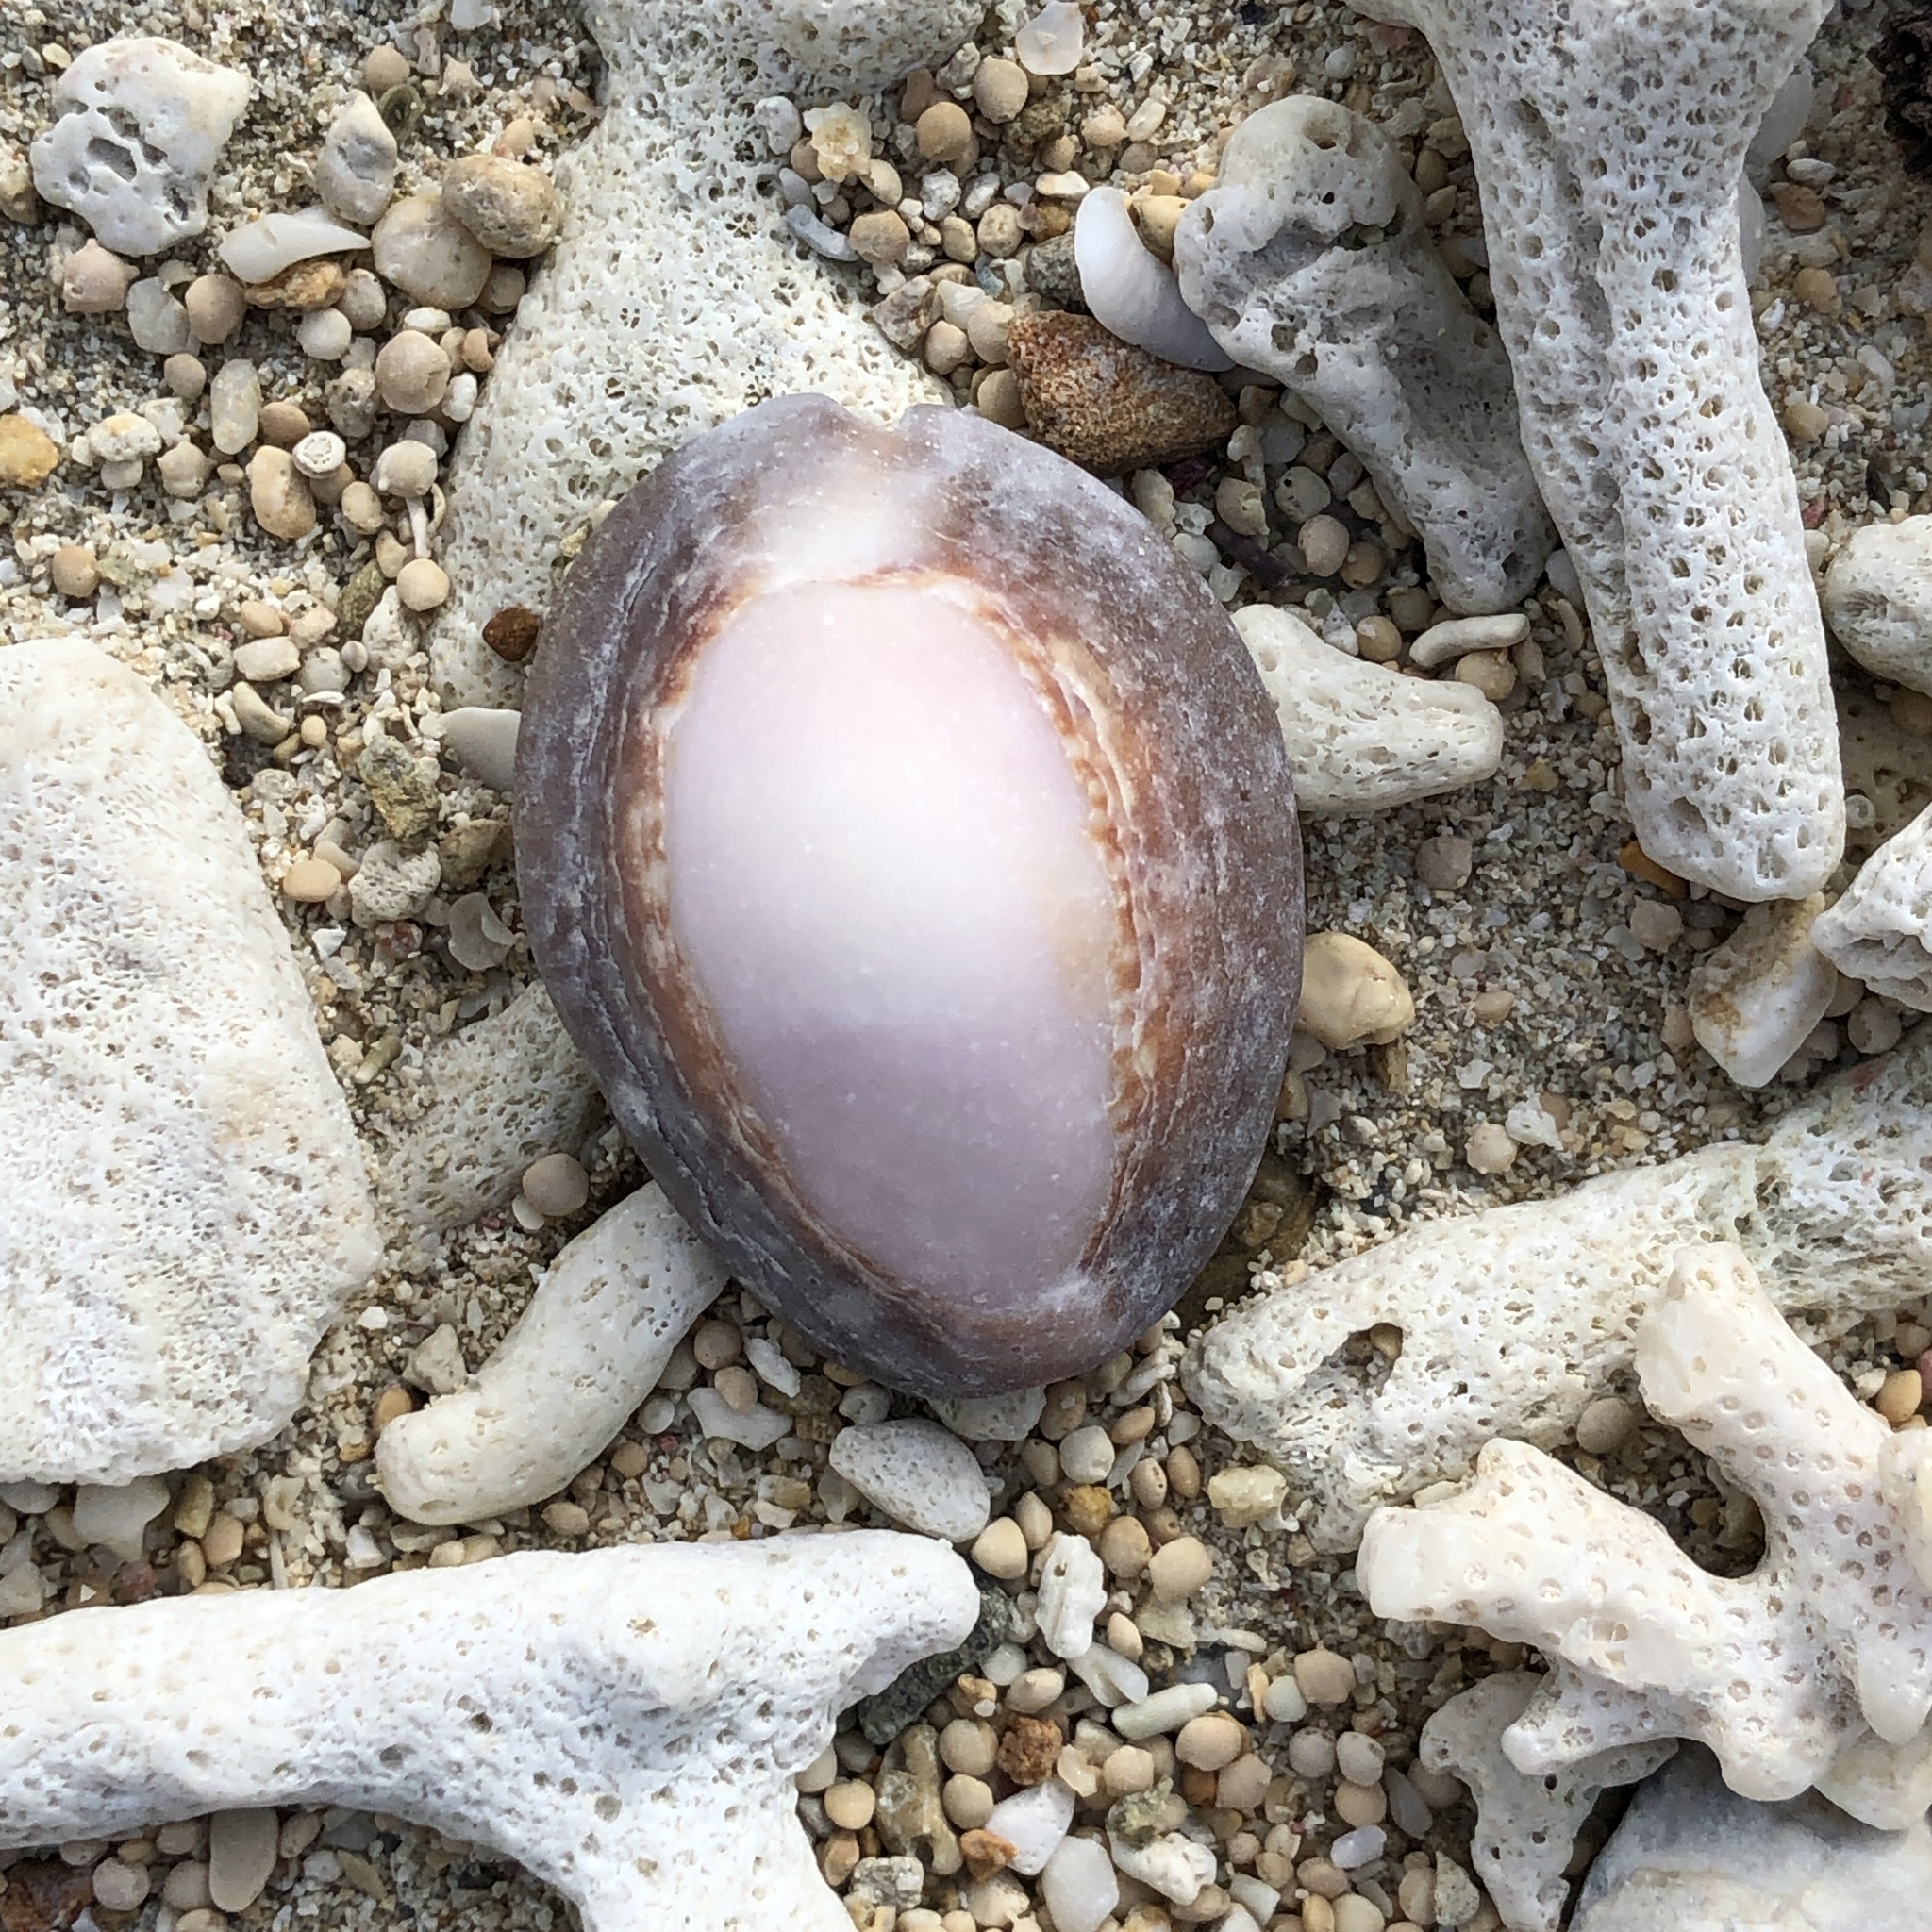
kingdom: Animalia
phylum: Mollusca
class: Gastropoda
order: Littorinimorpha
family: Cypraeidae
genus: Monetaria
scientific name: Monetaria caputserpentis
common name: Serpent's head cowrie
